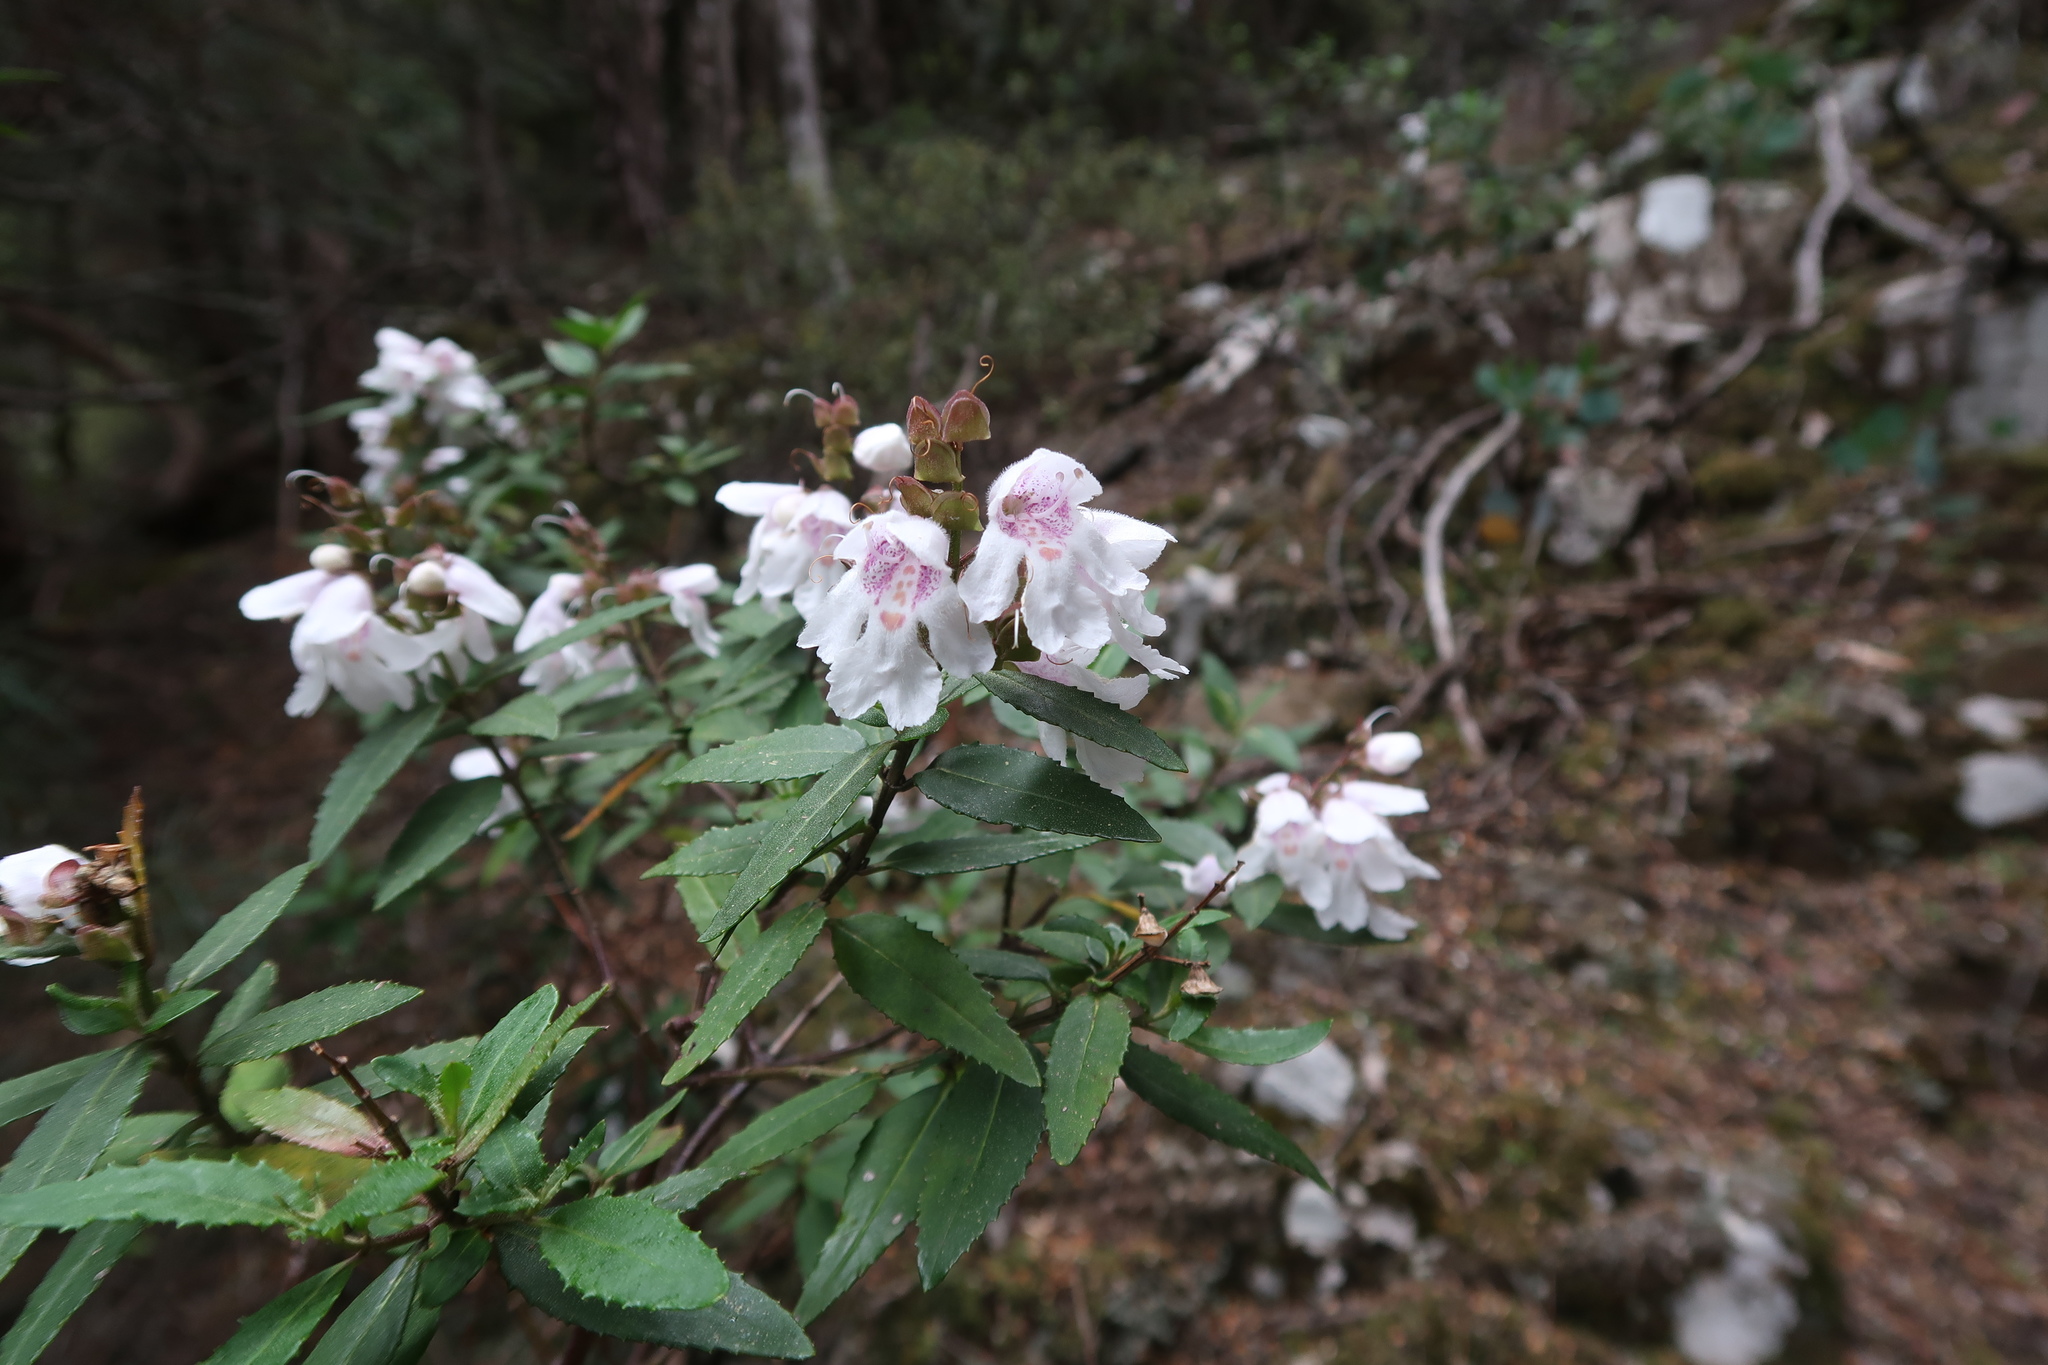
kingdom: Plantae
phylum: Tracheophyta
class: Magnoliopsida
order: Lamiales
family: Lamiaceae
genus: Prostanthera
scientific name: Prostanthera lasianthos
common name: Mountain-lilac
